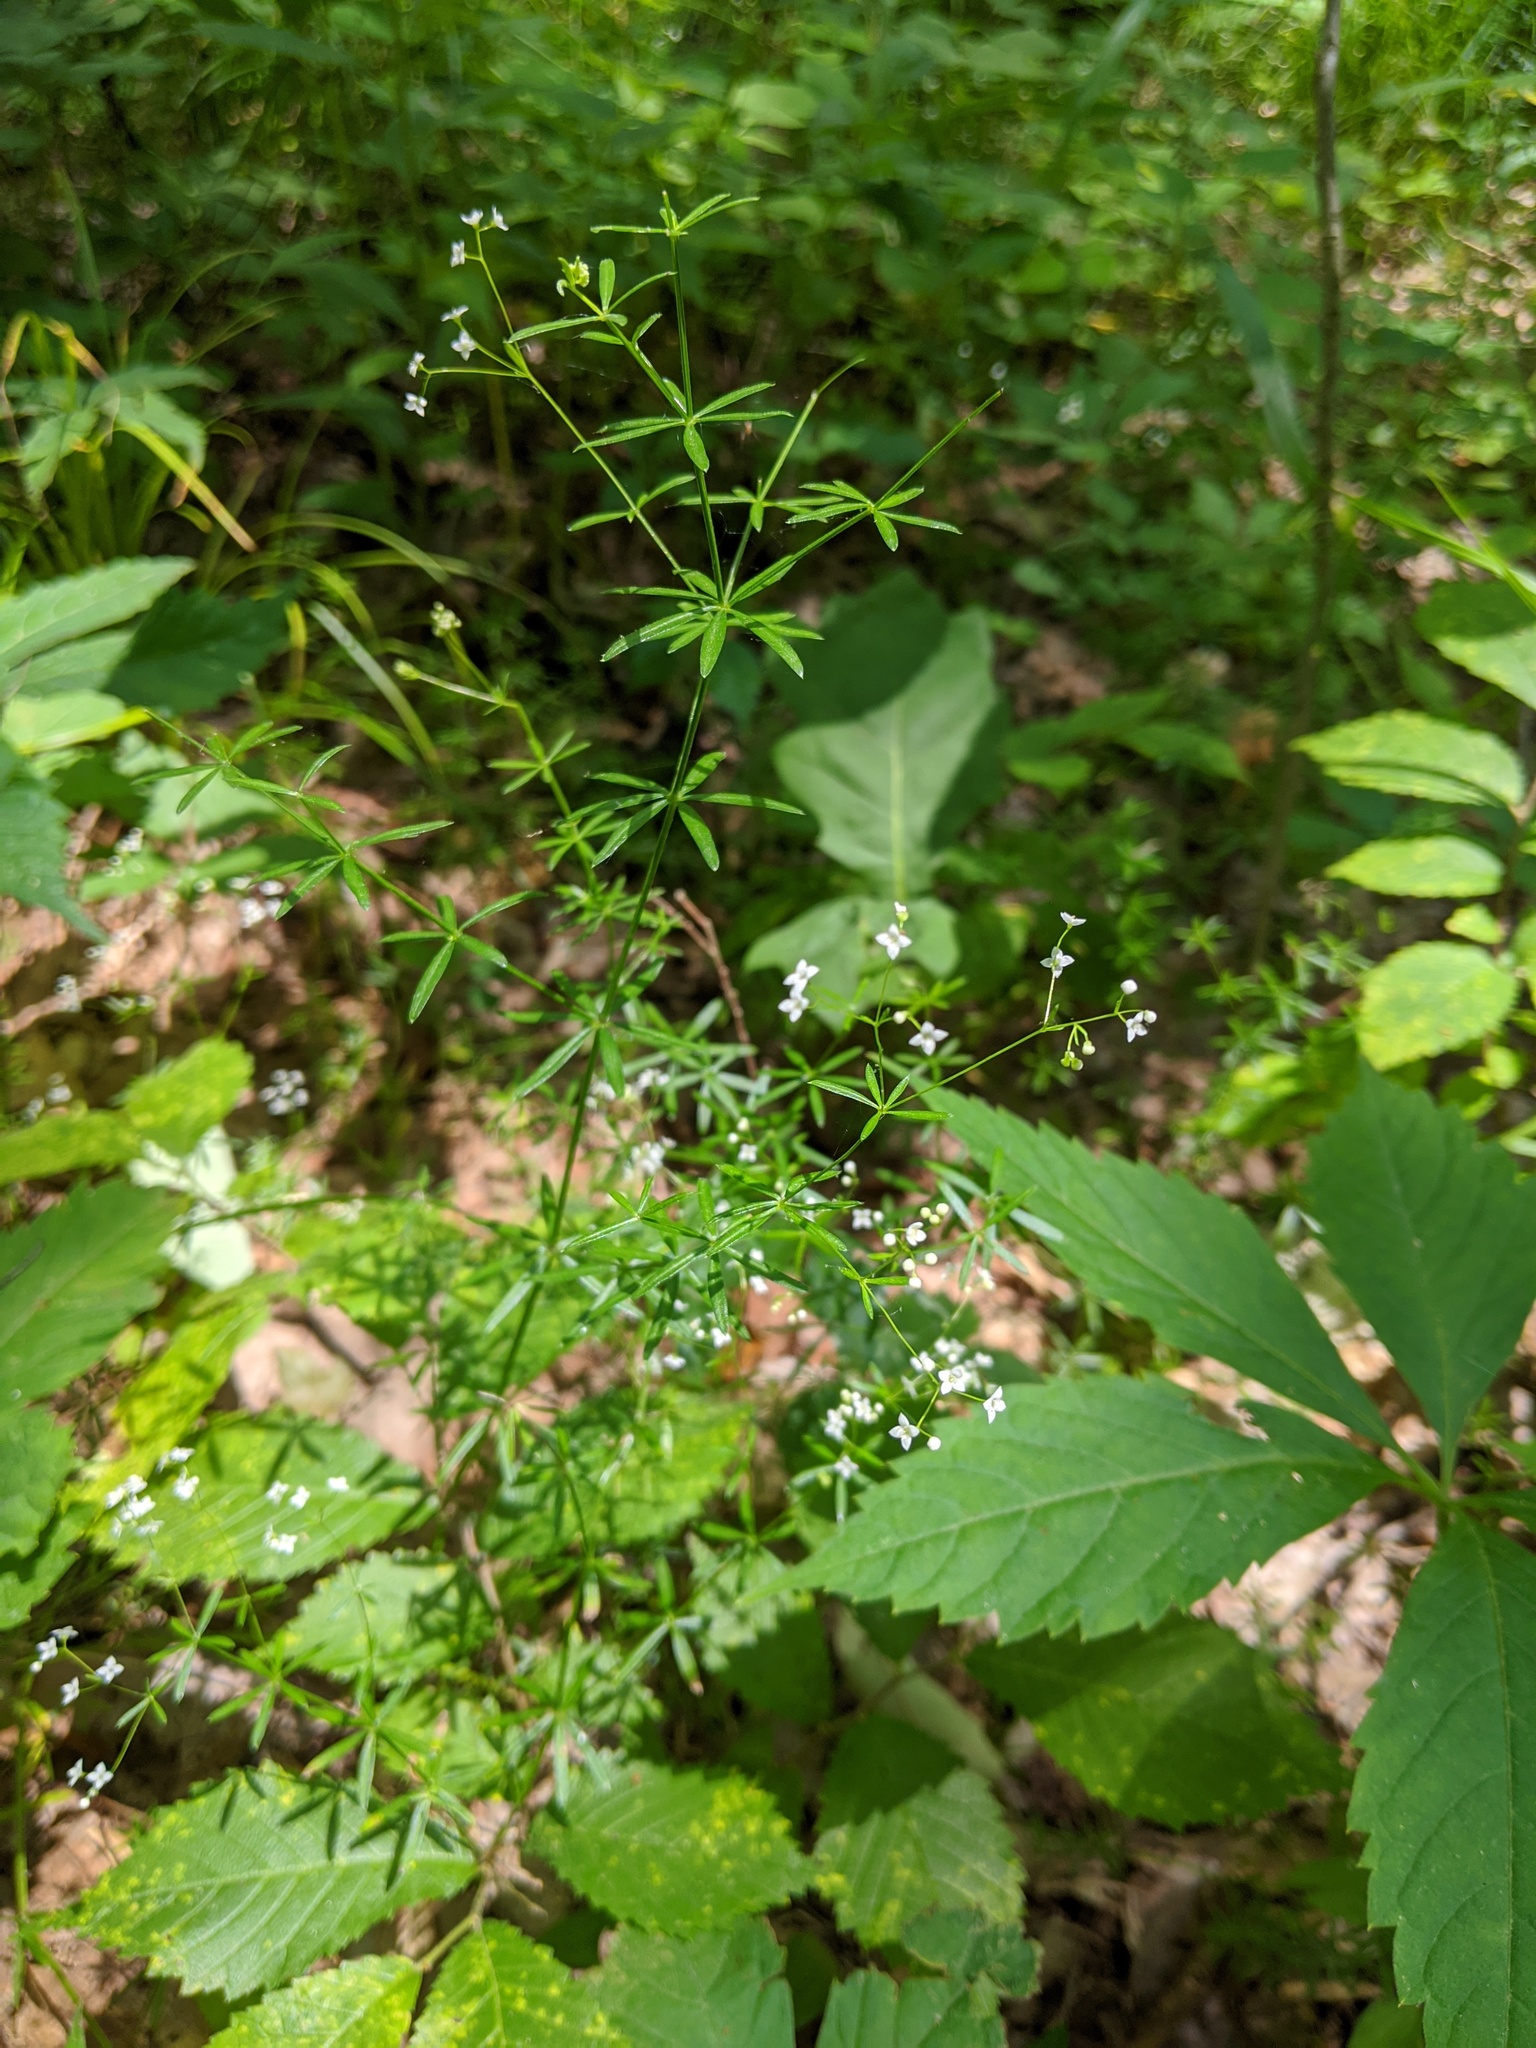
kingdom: Plantae
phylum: Tracheophyta
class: Magnoliopsida
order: Gentianales
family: Rubiaceae
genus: Galium
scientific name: Galium concinnum
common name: Shining bedstraw
